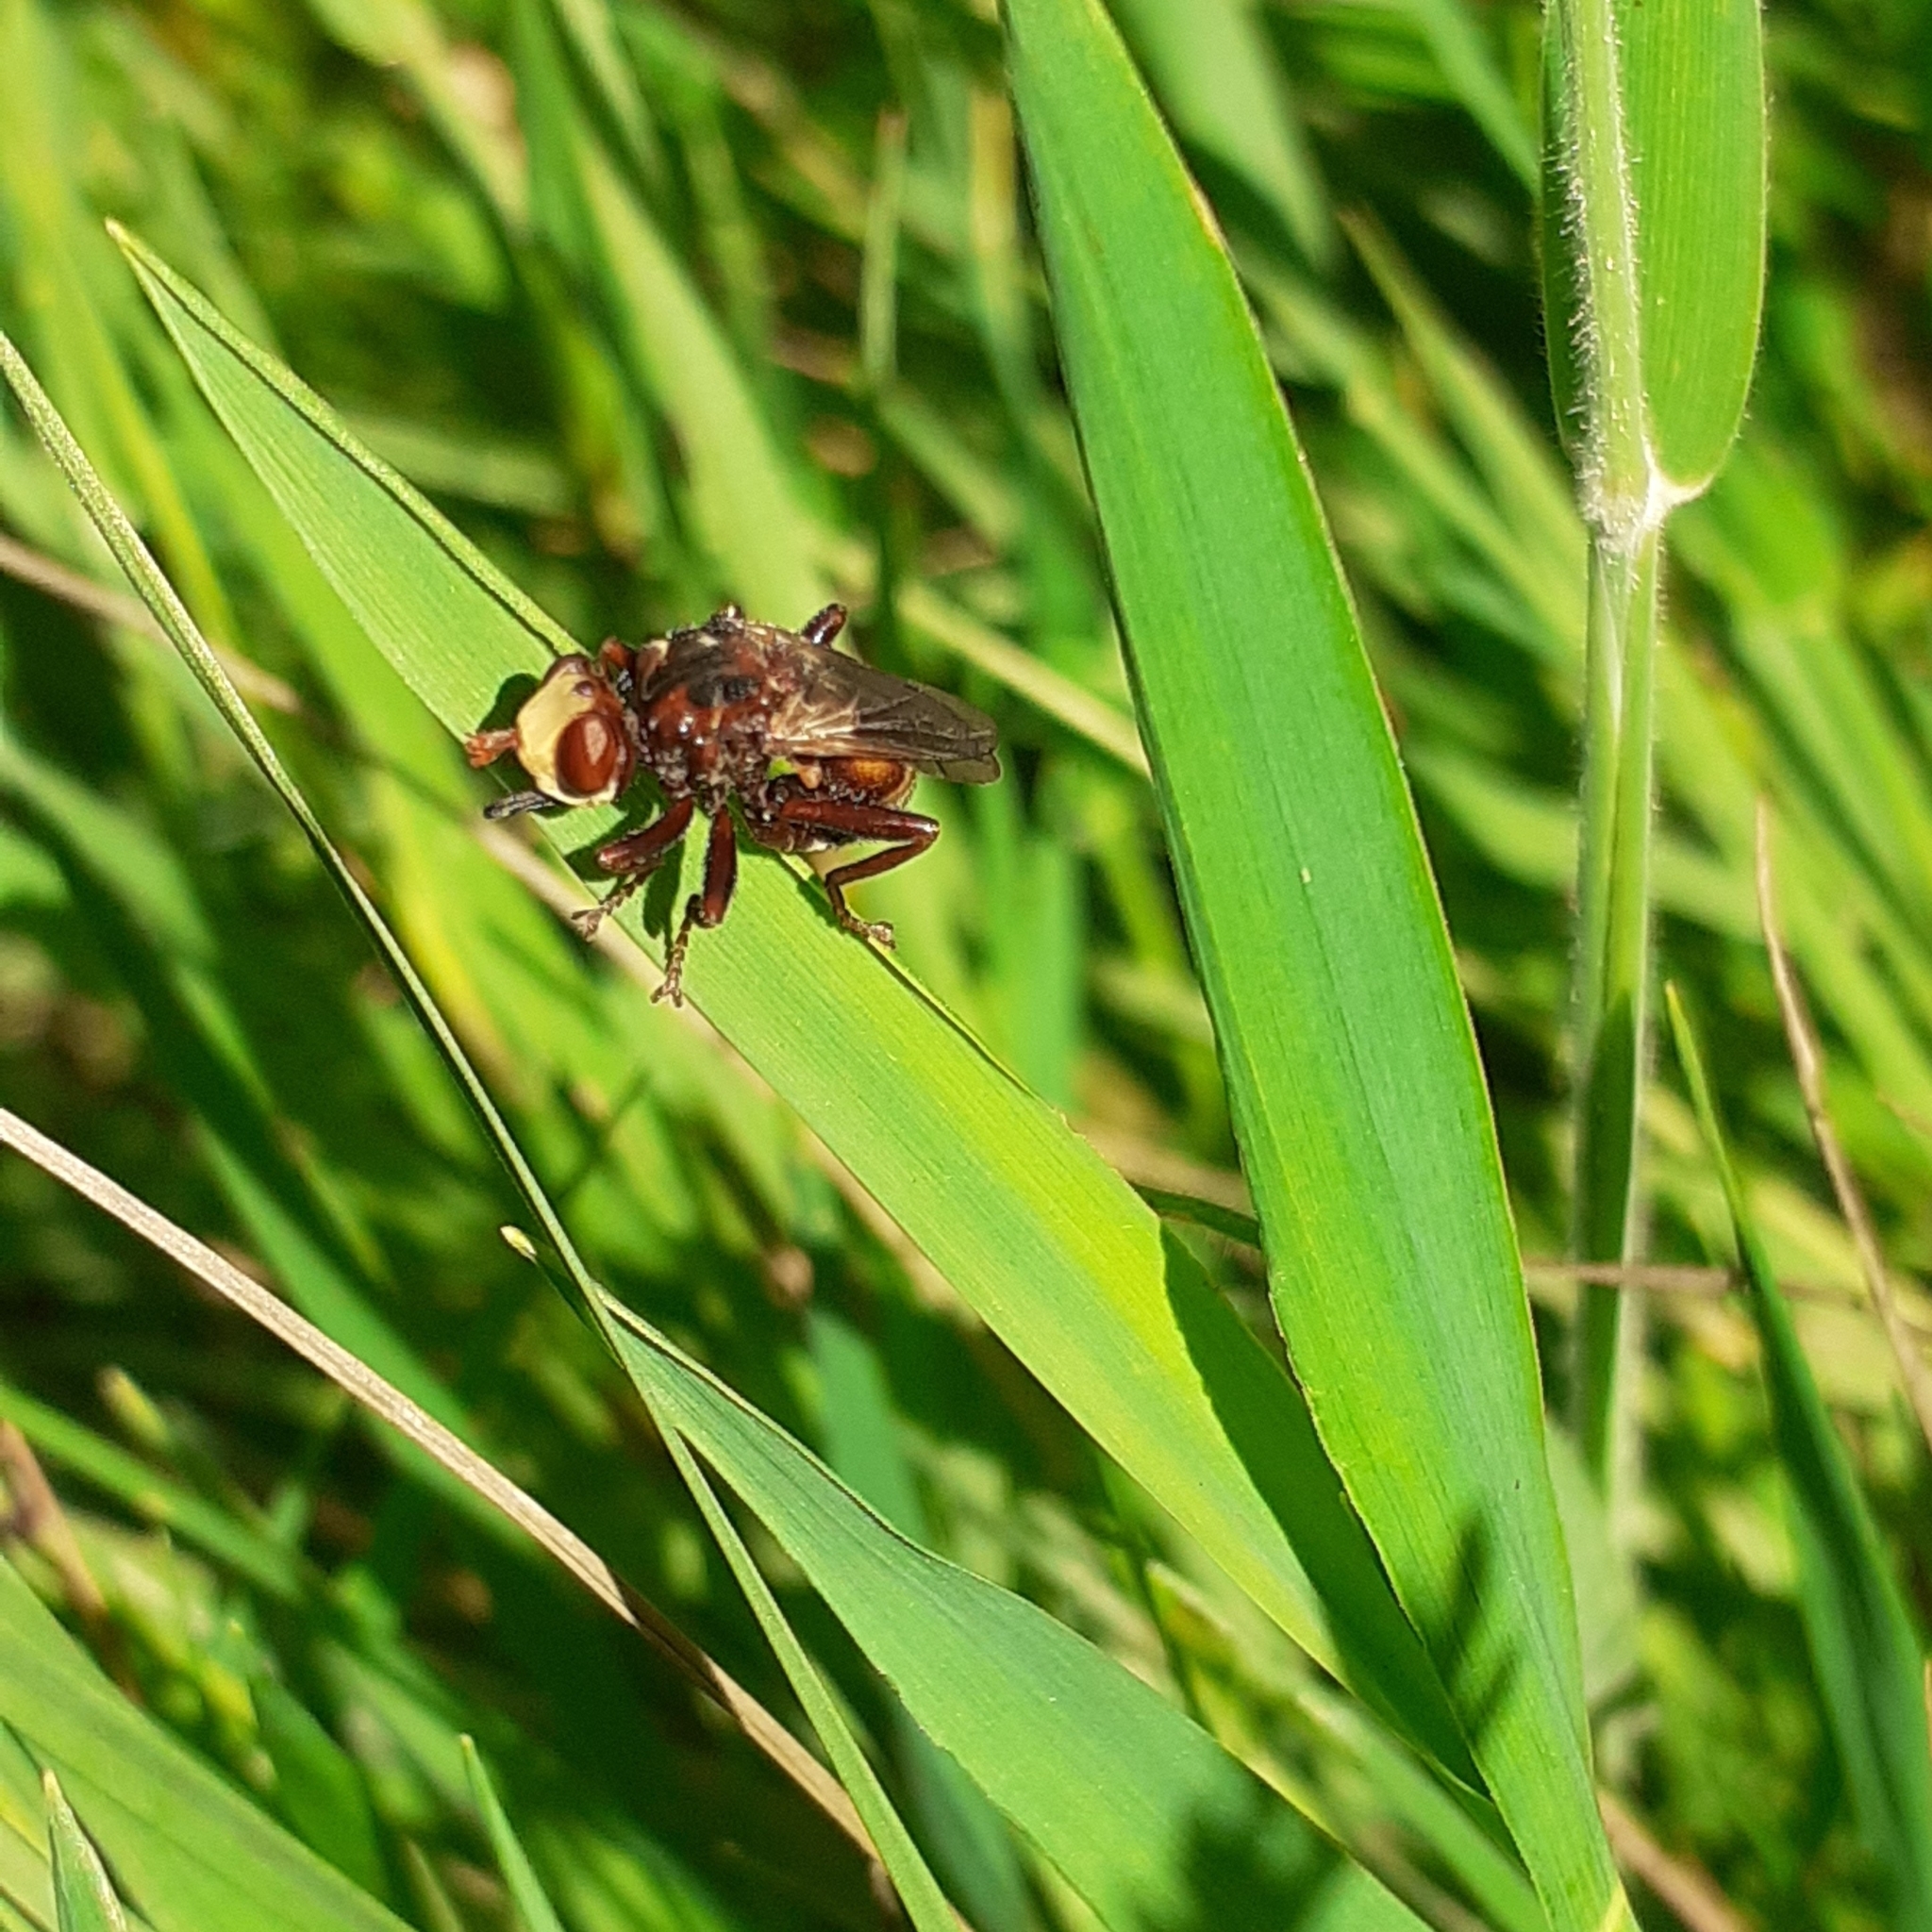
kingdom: Animalia
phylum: Arthropoda
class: Insecta
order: Diptera
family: Conopidae
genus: Sicus
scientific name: Sicus ferrugineus
